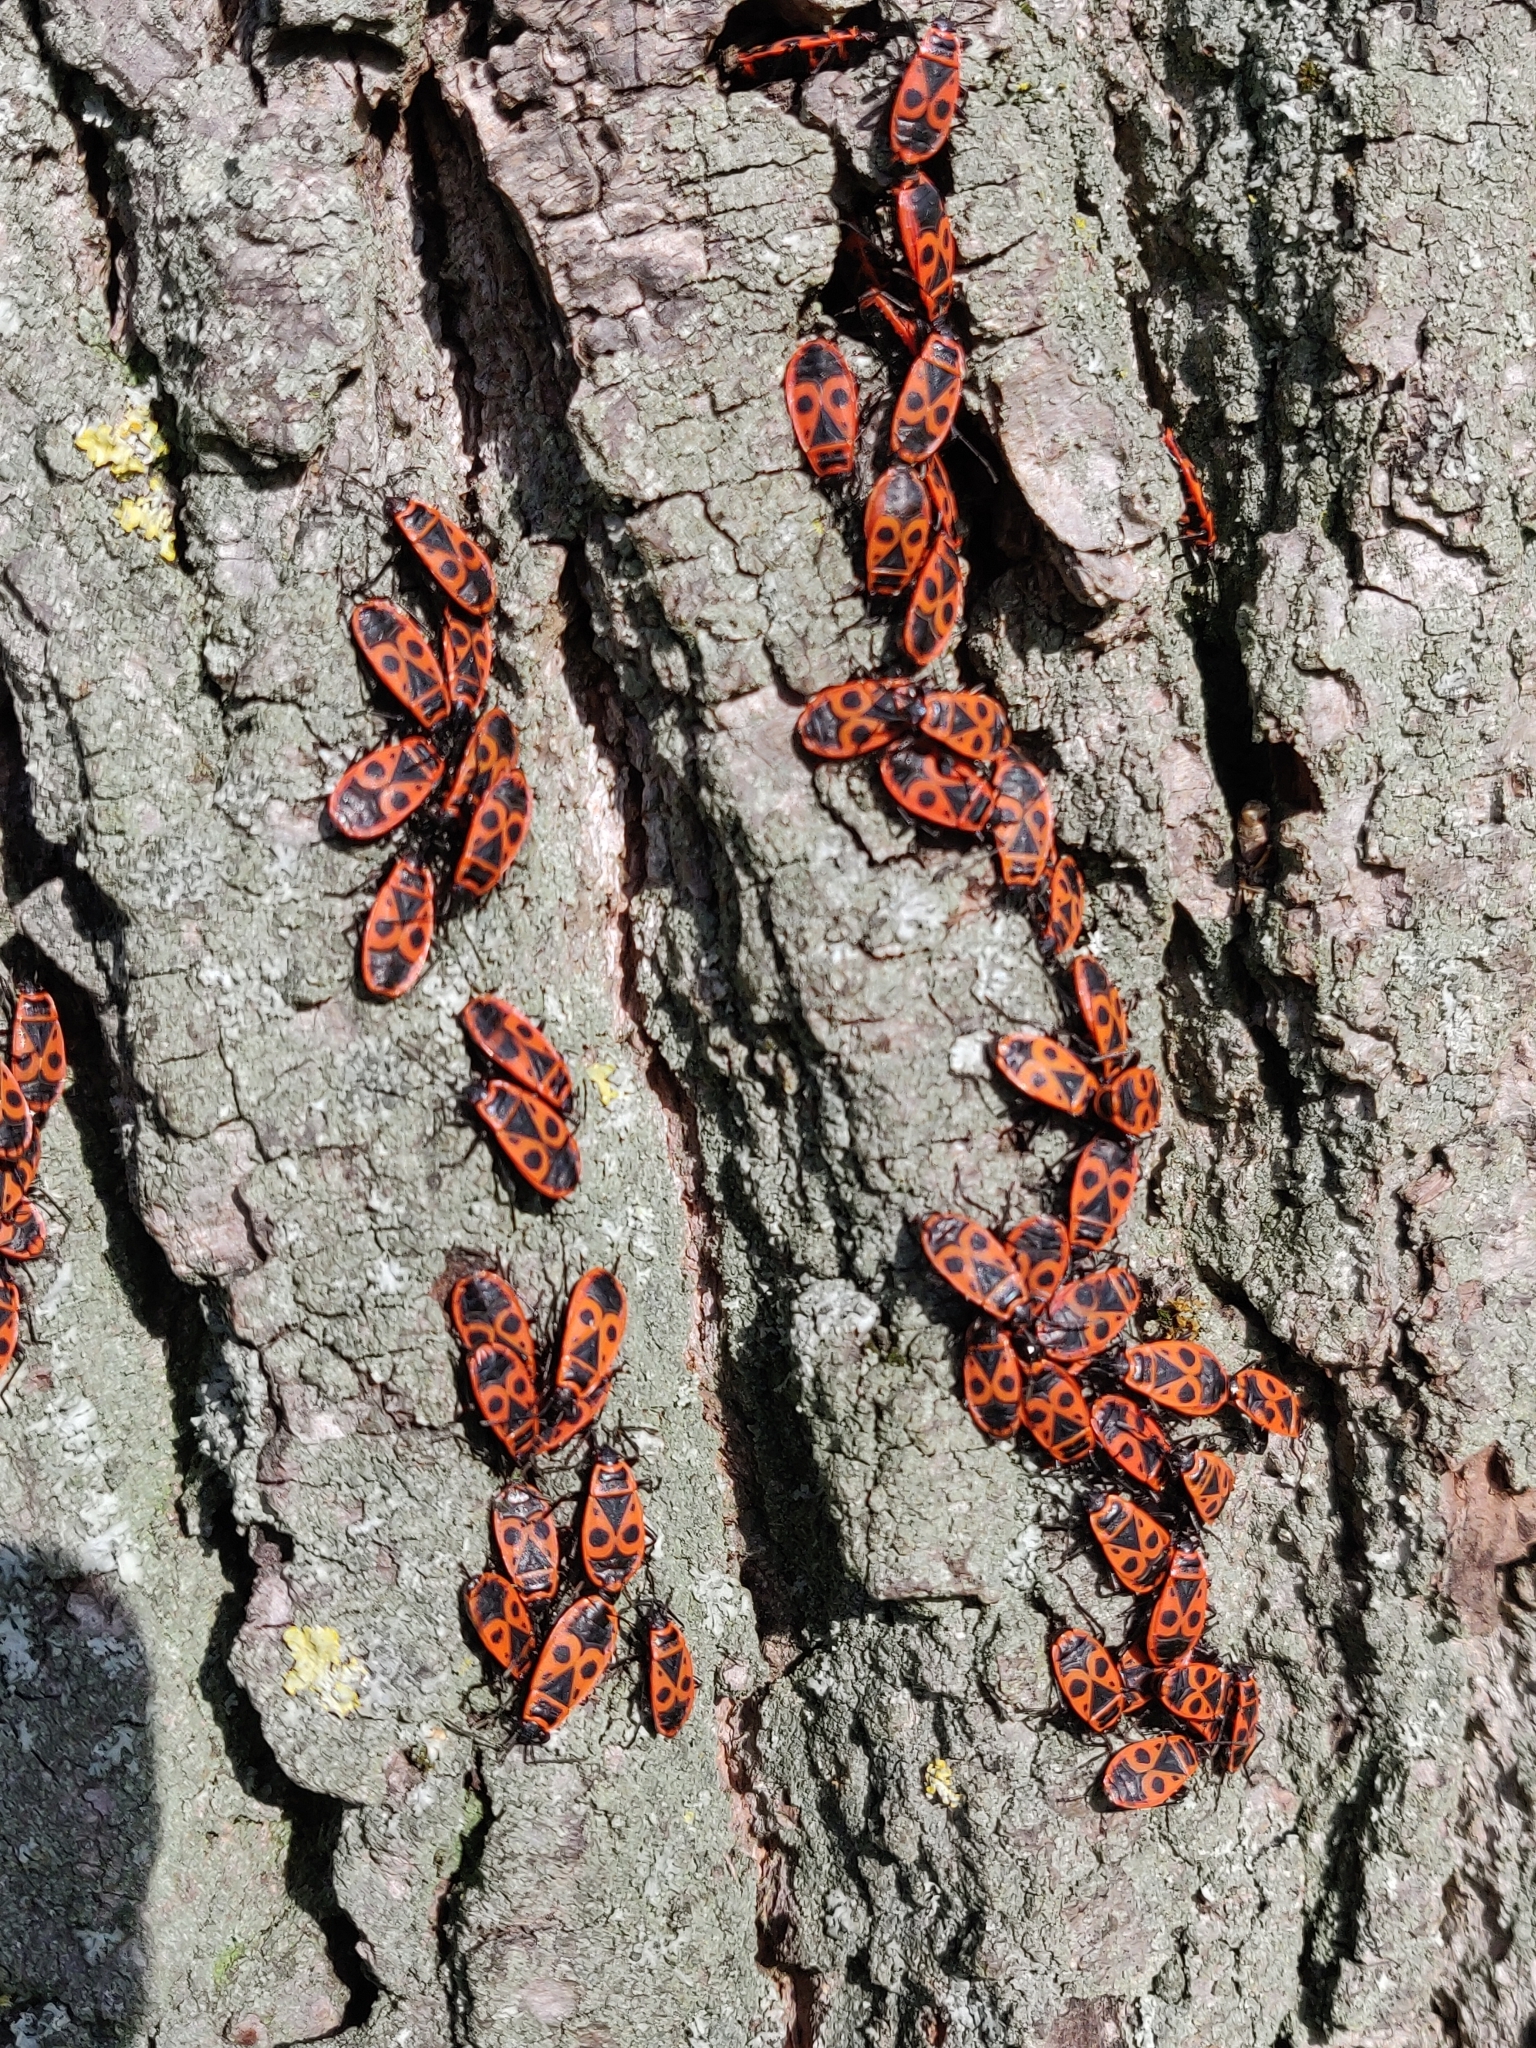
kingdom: Animalia
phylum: Arthropoda
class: Insecta
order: Hemiptera
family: Pyrrhocoridae
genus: Pyrrhocoris
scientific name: Pyrrhocoris apterus
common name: Firebug
